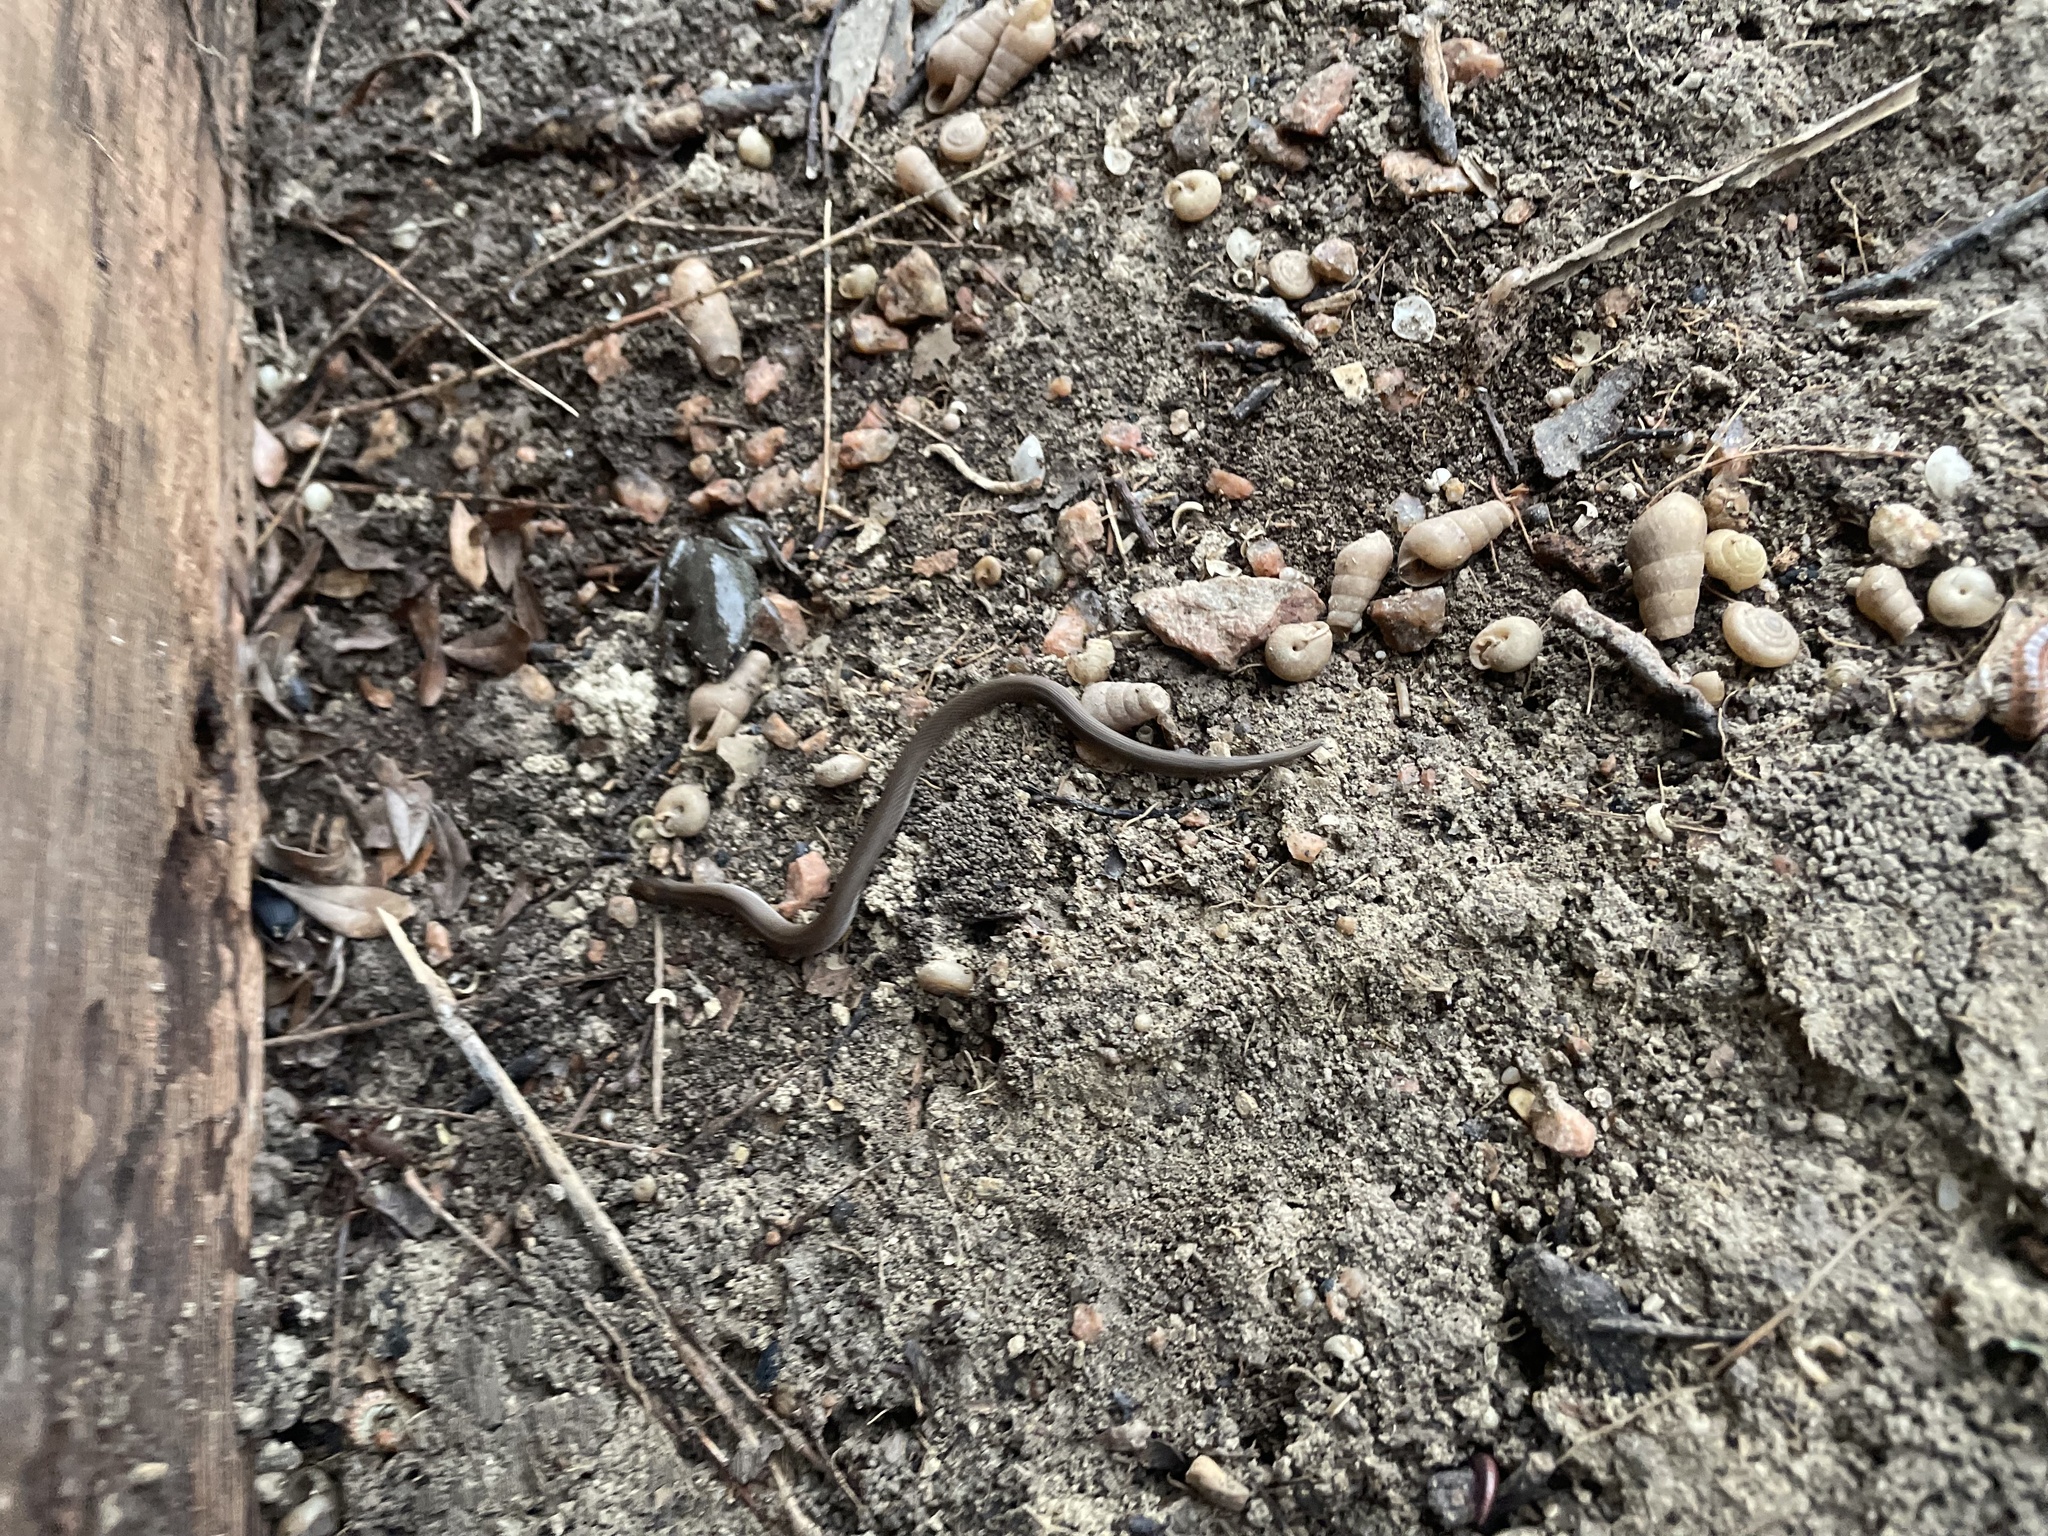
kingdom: Animalia
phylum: Chordata
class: Squamata
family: Colubridae
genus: Haldea
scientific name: Haldea striatula
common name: Rough earth snake
